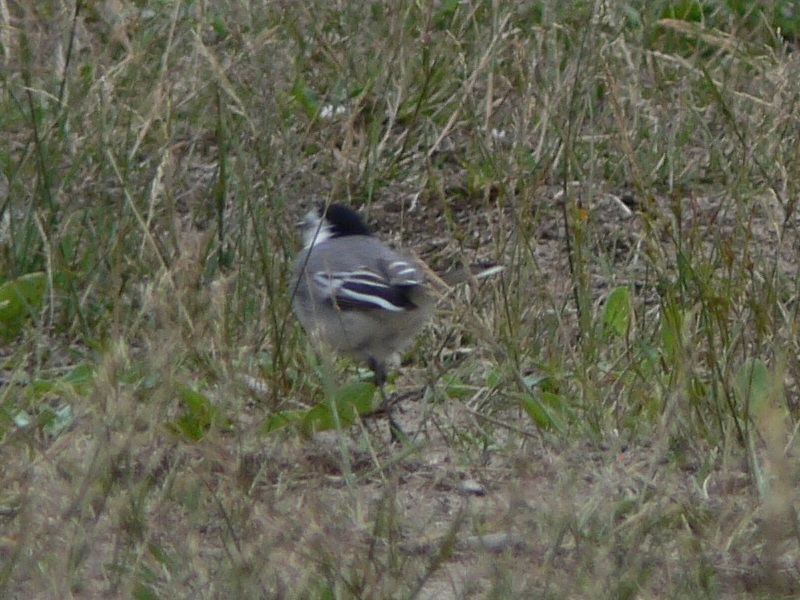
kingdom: Animalia
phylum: Chordata
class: Aves
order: Passeriformes
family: Motacillidae
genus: Motacilla
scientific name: Motacilla alba
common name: White wagtail
